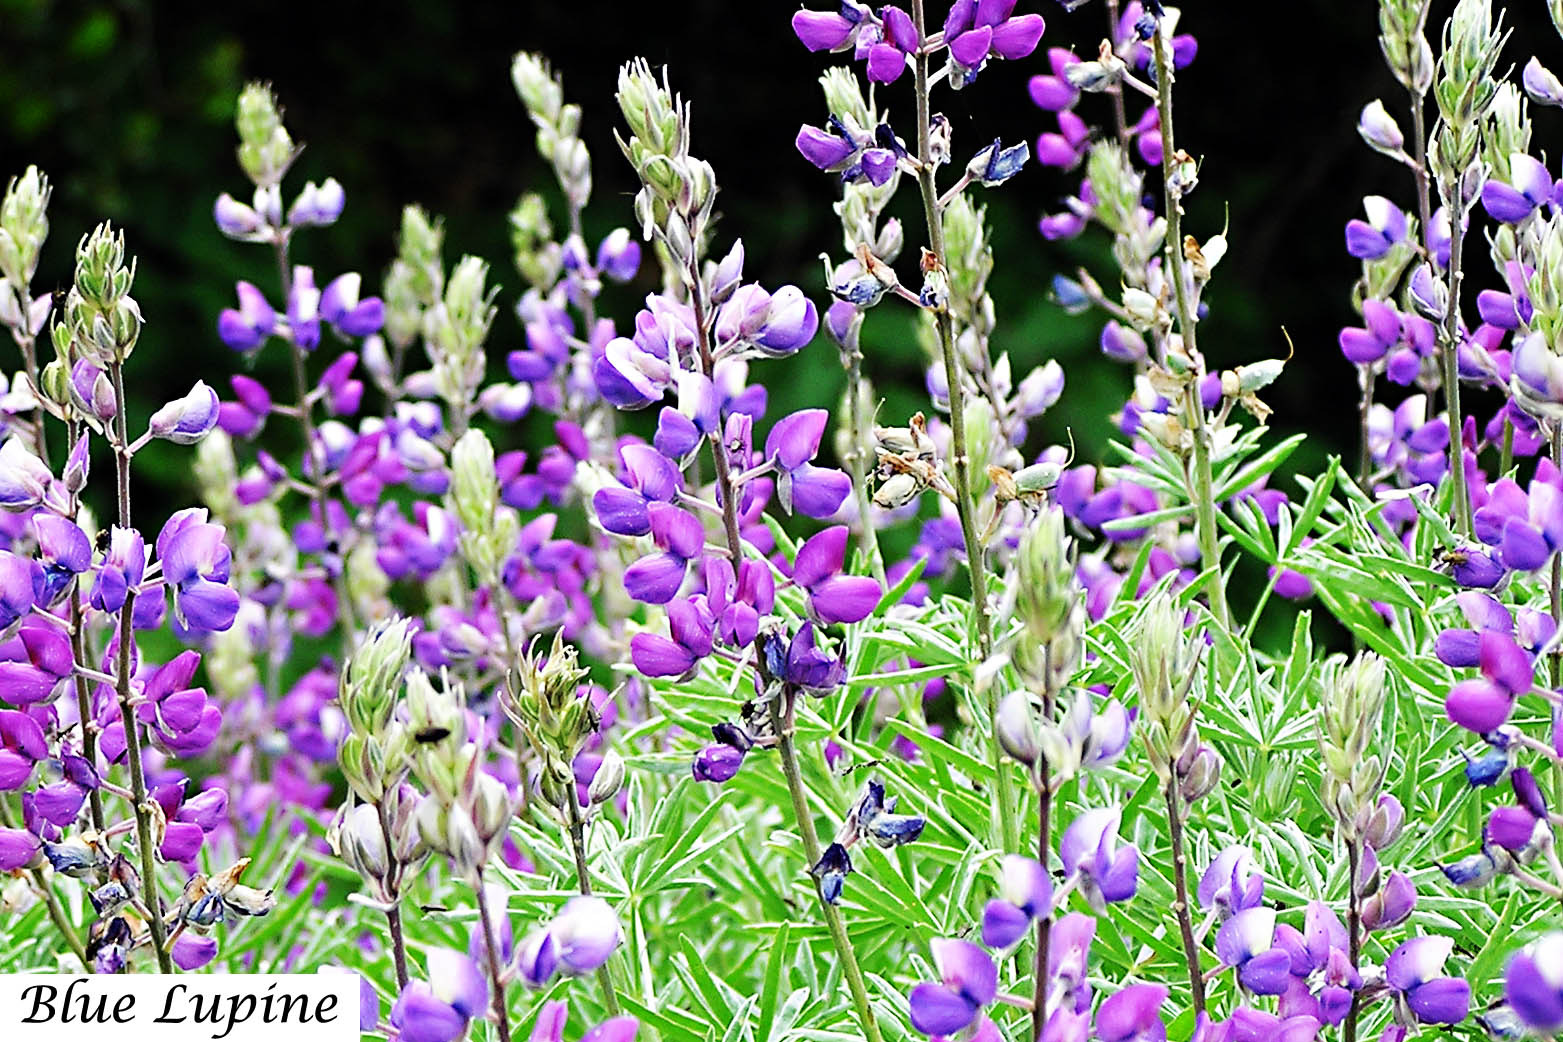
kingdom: Plantae
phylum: Tracheophyta
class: Magnoliopsida
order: Fabales
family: Fabaceae
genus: Lupinus
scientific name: Lupinus nanus
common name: Orean blue lupin
